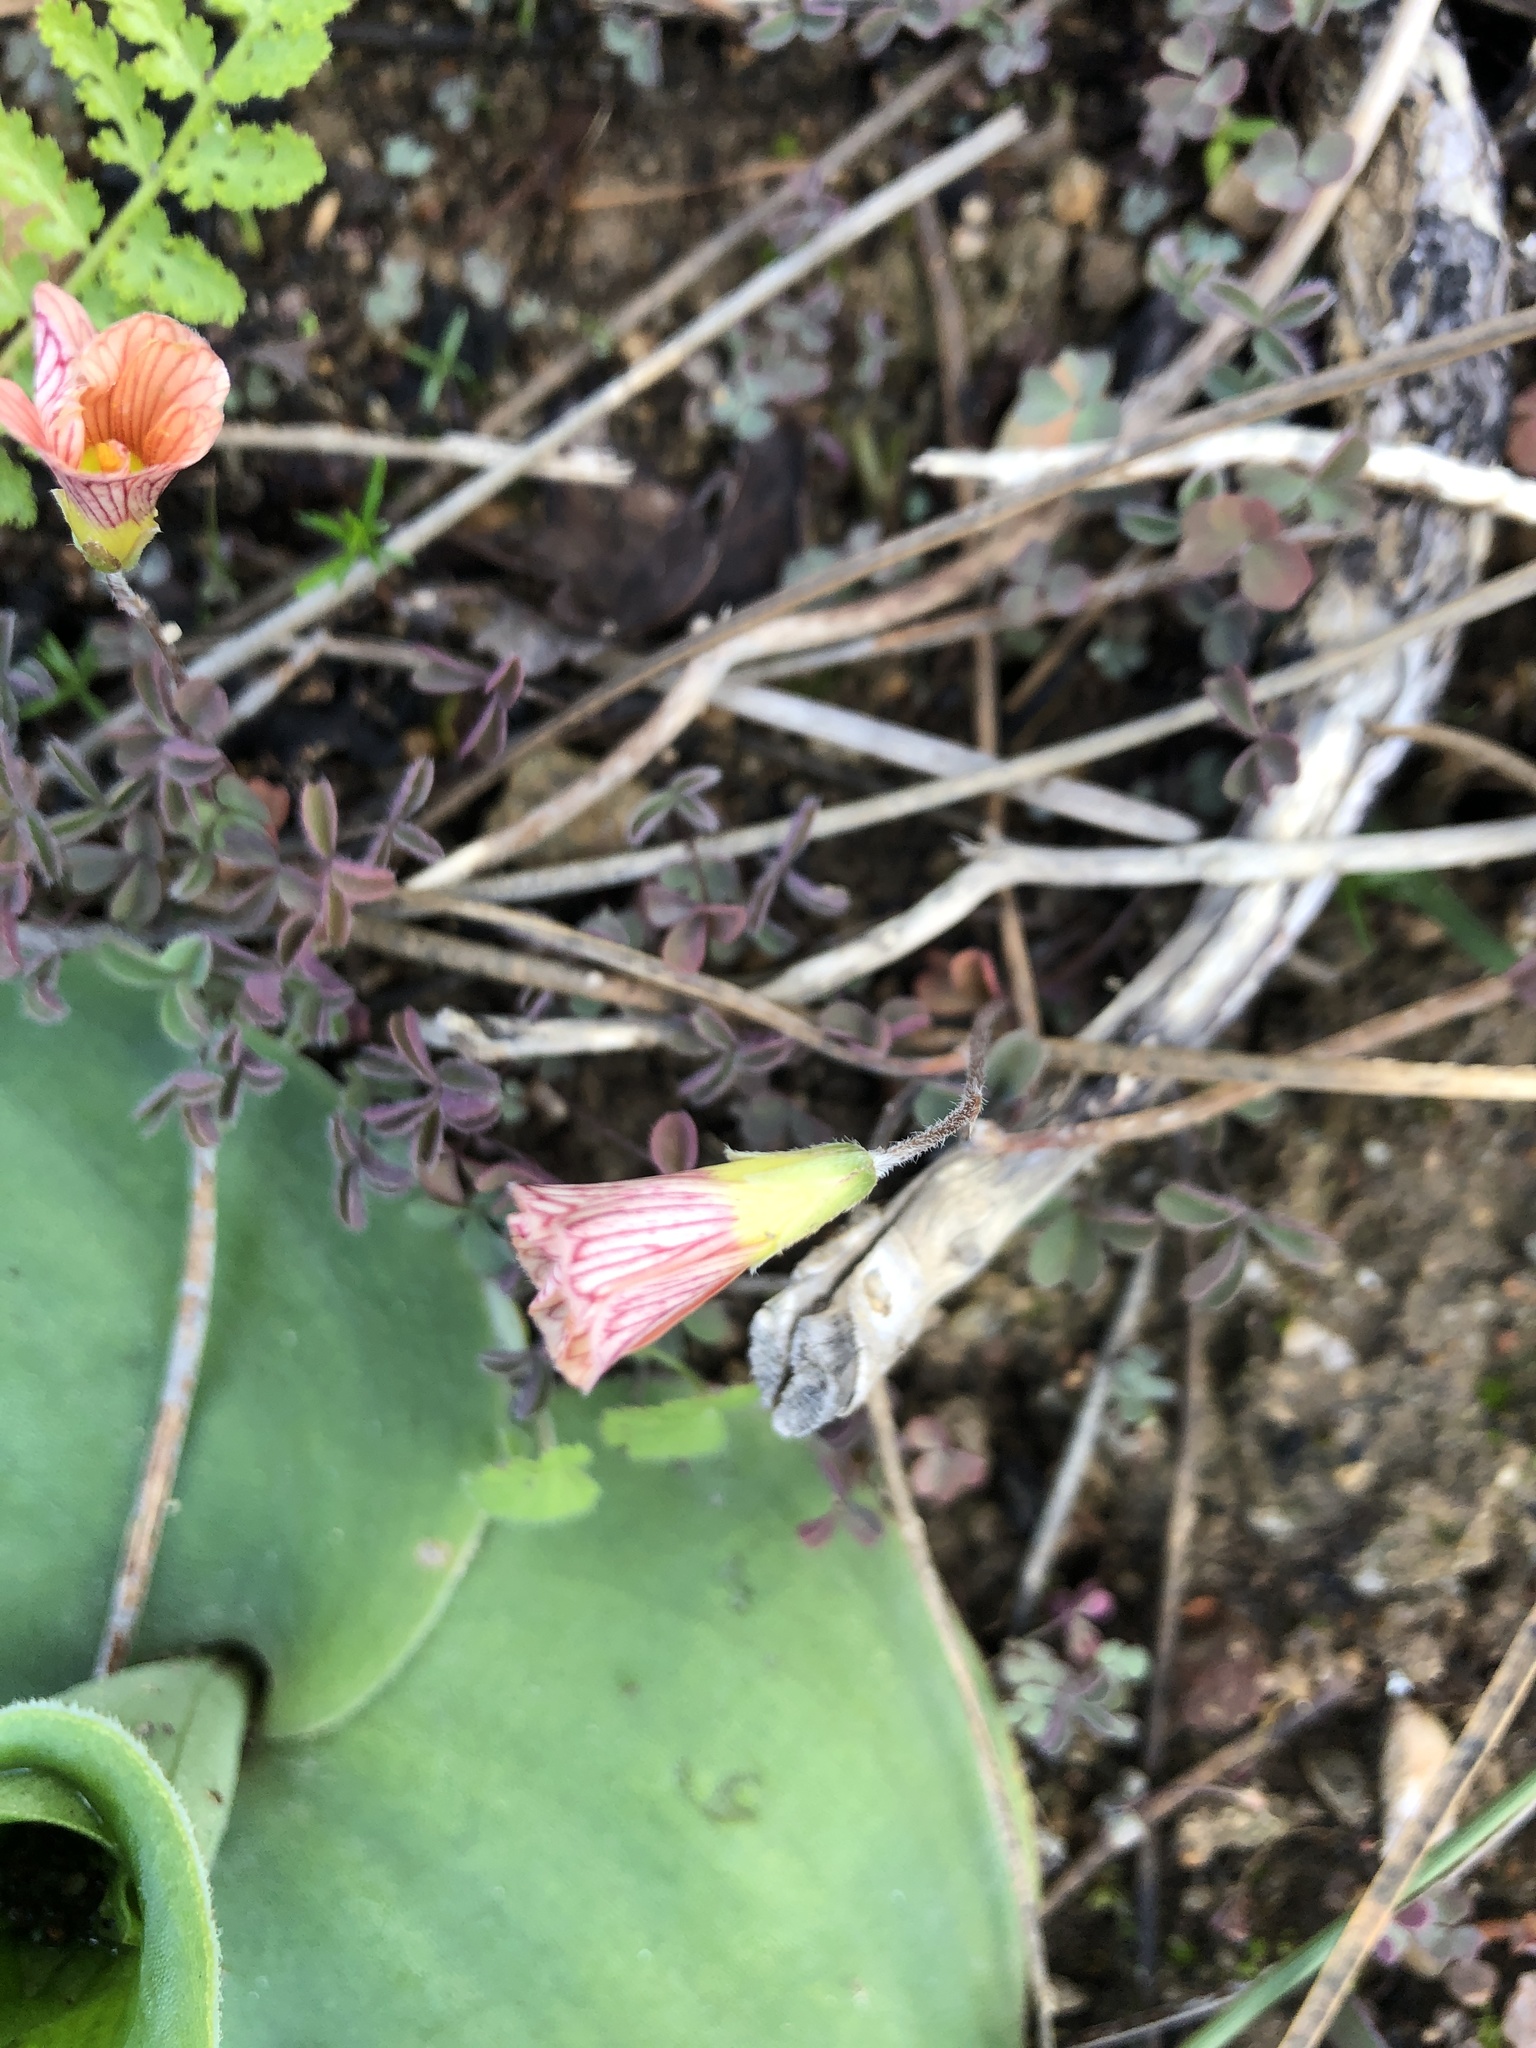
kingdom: Plantae
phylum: Tracheophyta
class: Magnoliopsida
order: Oxalidales
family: Oxalidaceae
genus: Oxalis
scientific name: Oxalis obtusa
